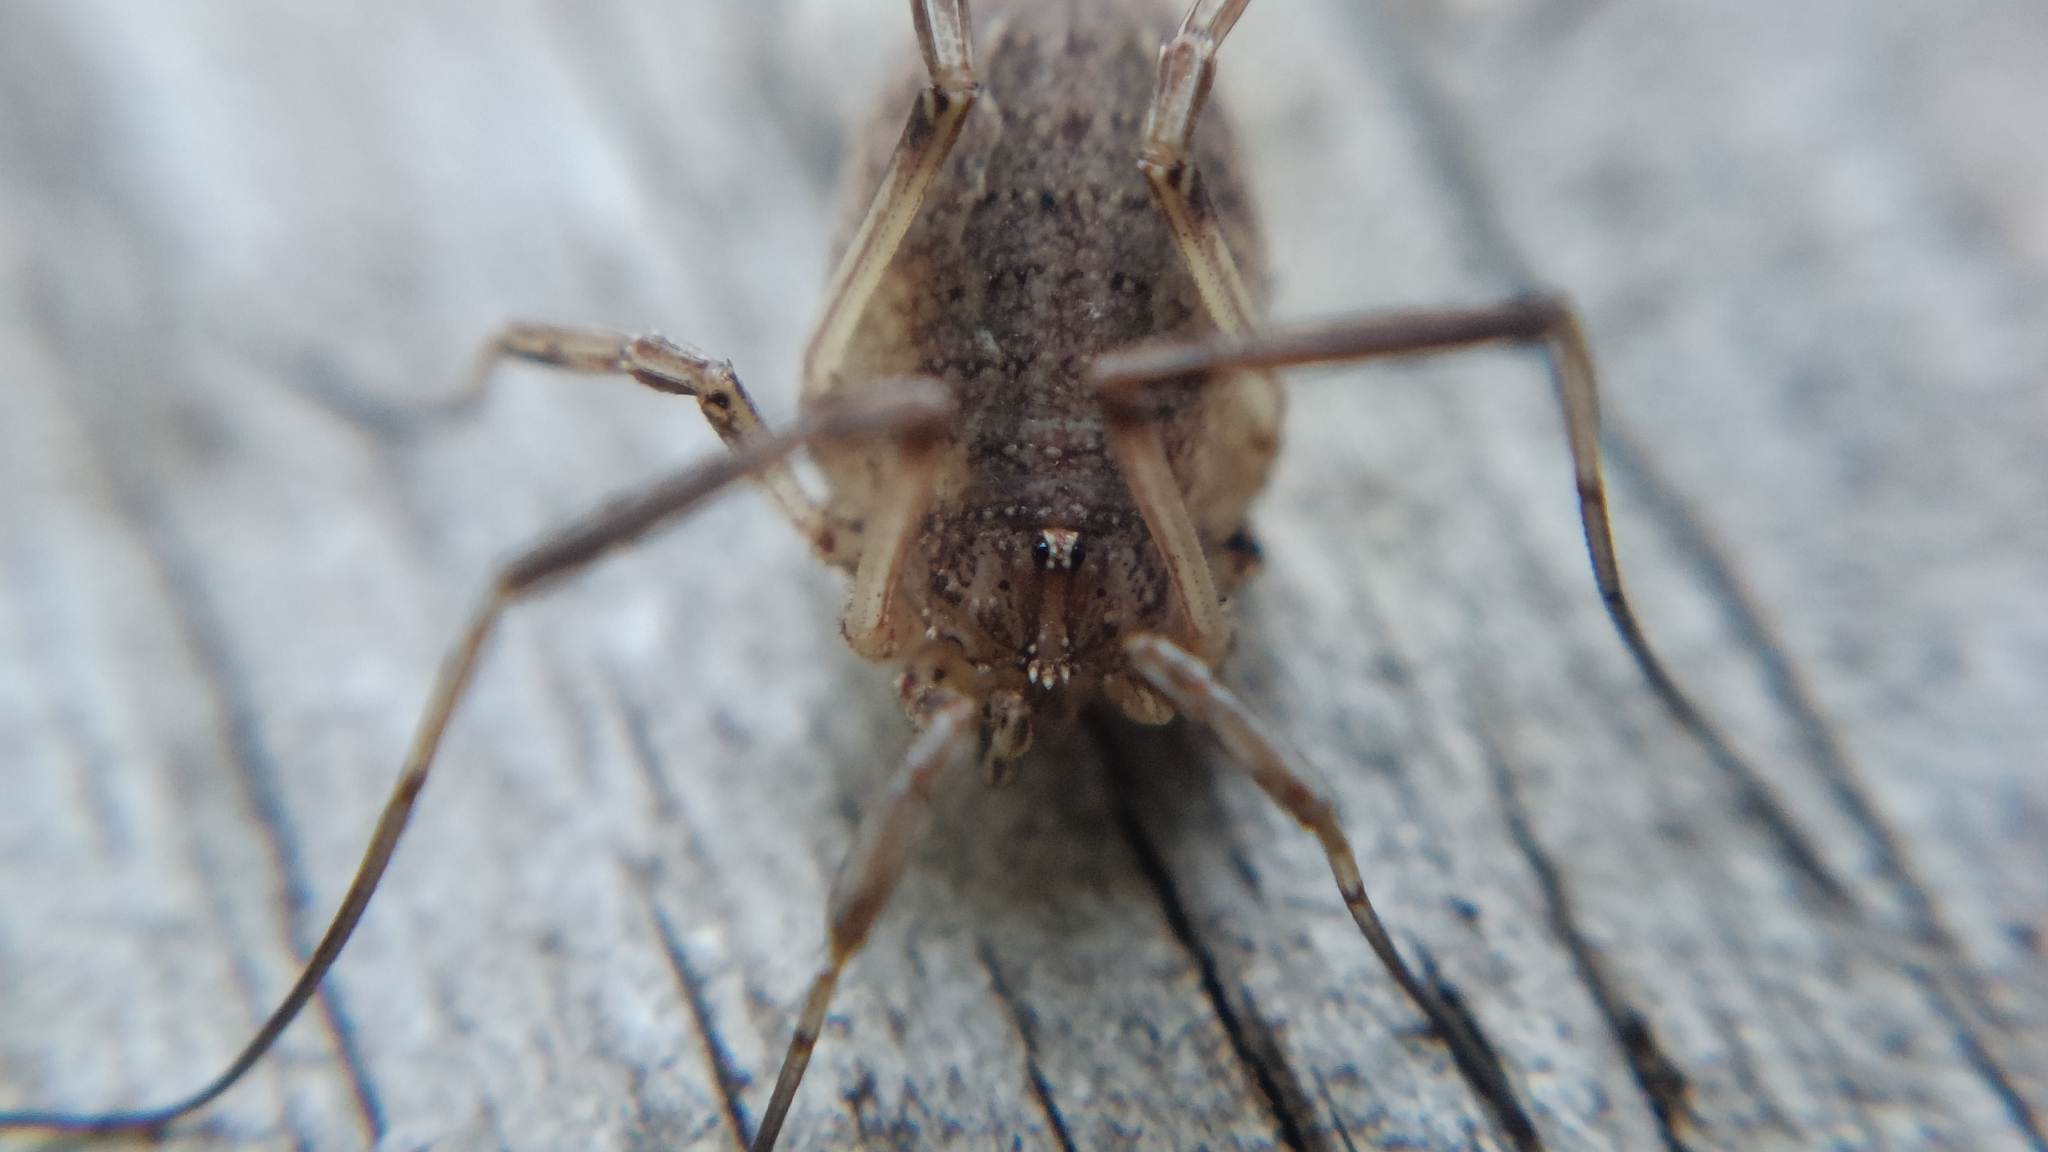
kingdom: Animalia
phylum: Arthropoda
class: Arachnida
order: Opiliones
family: Phalangiidae
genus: Odiellus
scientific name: Odiellus troguloides
